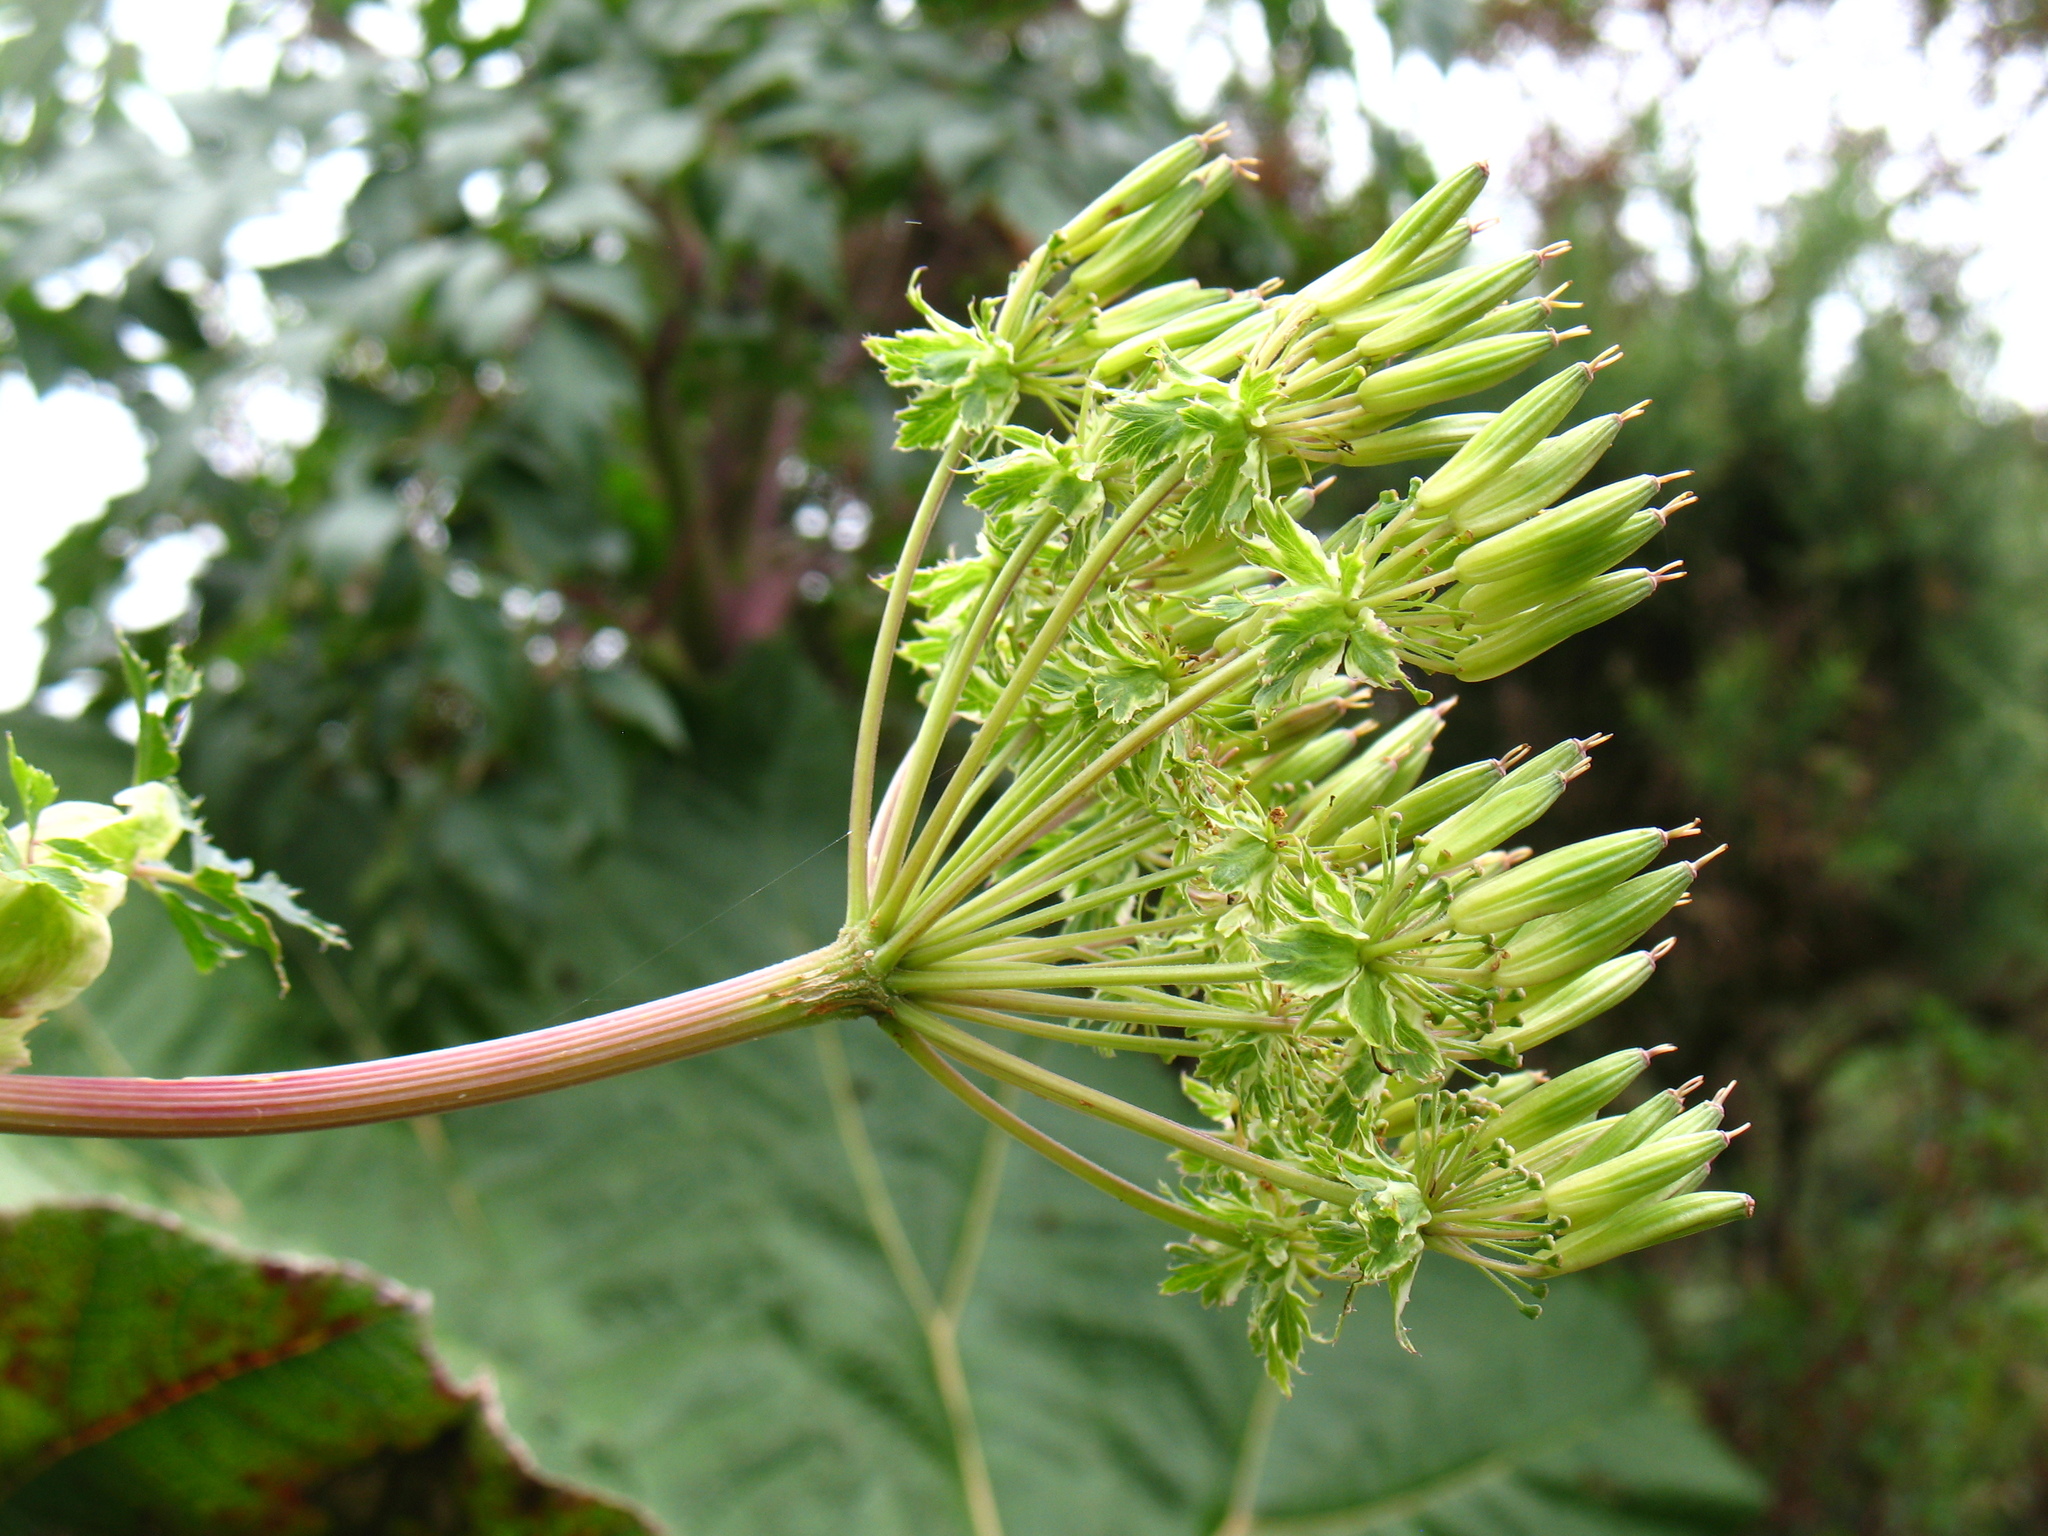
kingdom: Plantae
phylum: Tracheophyta
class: Magnoliopsida
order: Apiales
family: Apiaceae
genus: Myrrhidendron
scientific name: Myrrhidendron donnellsmithii
